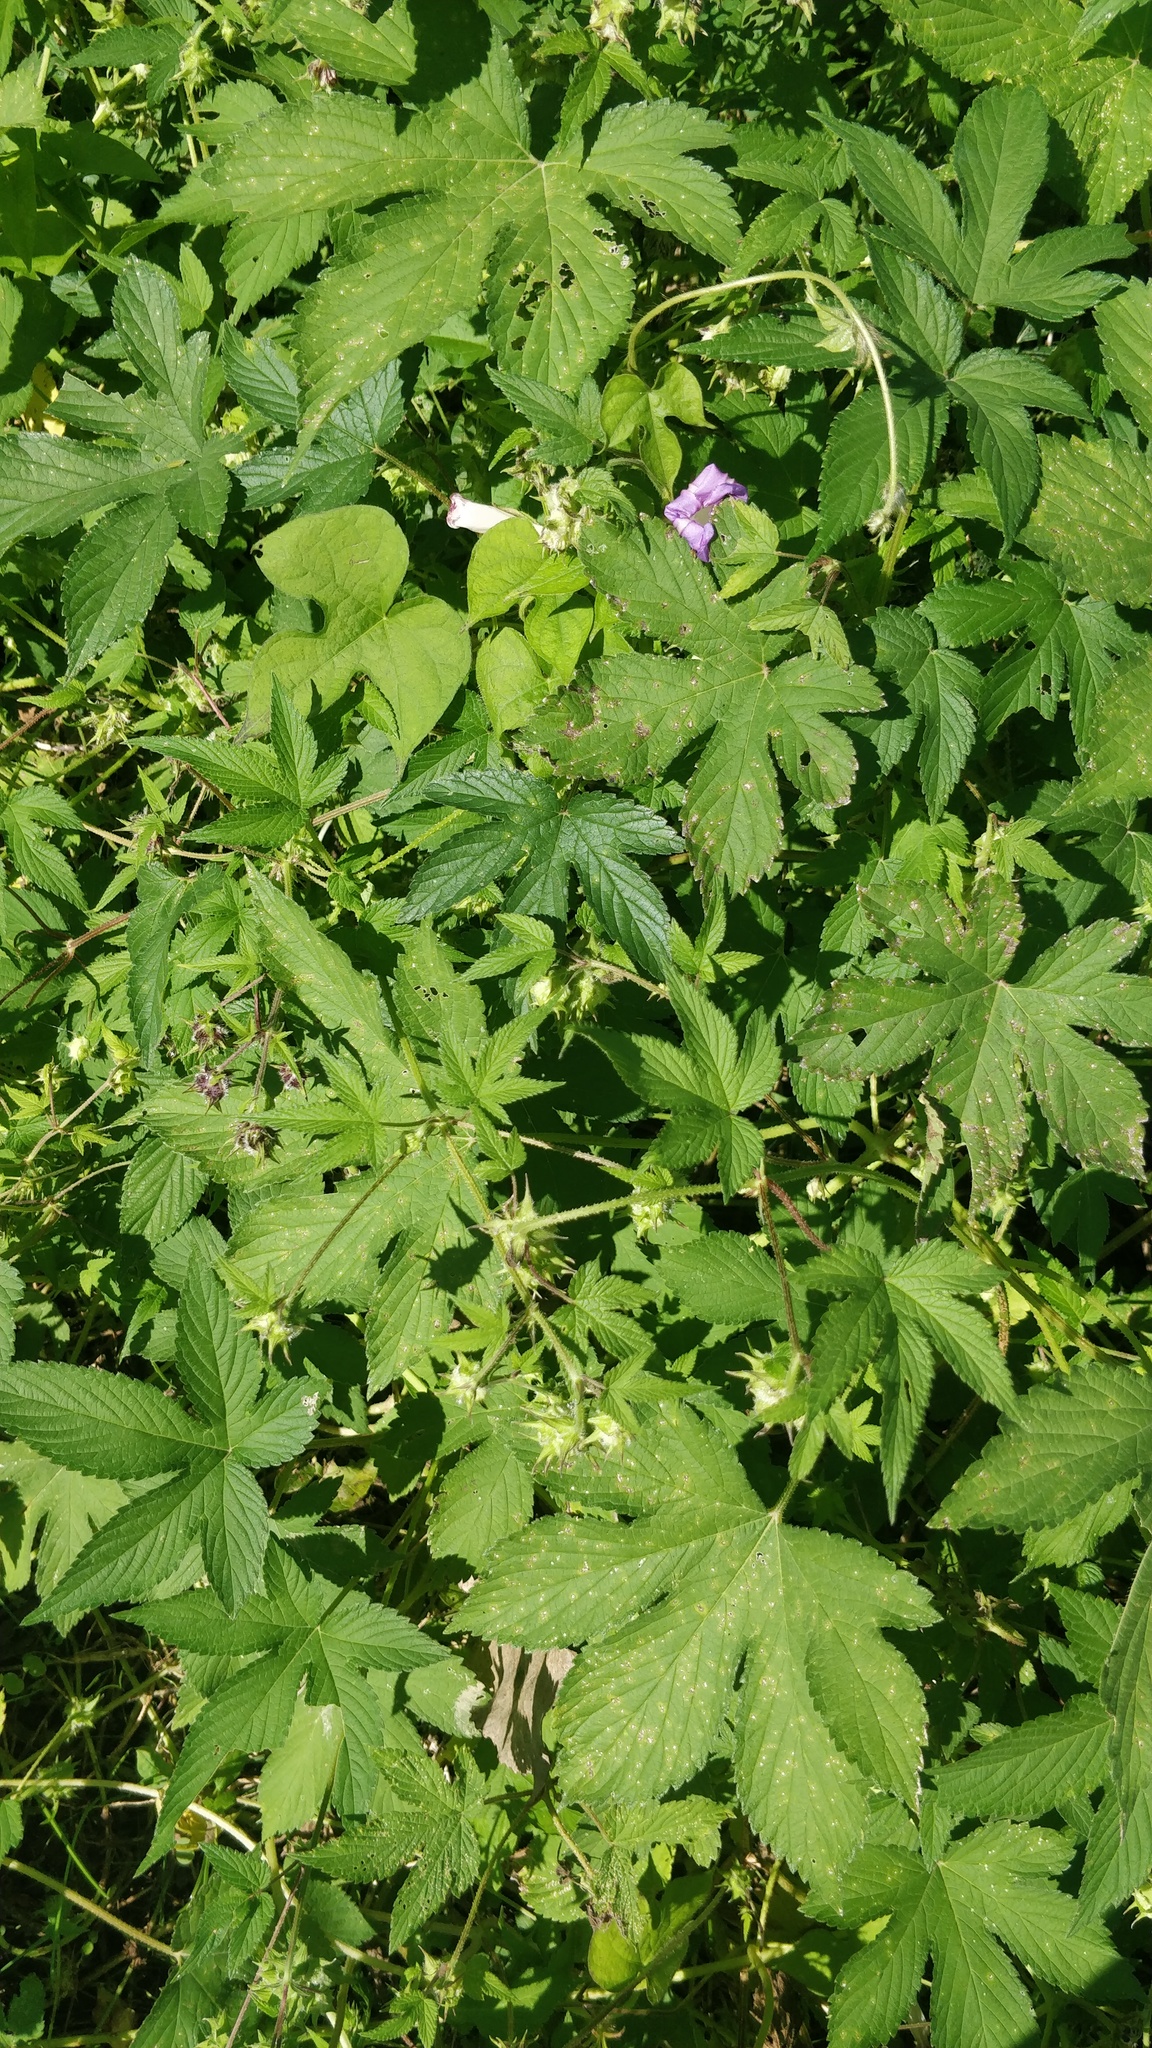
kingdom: Plantae
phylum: Tracheophyta
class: Magnoliopsida
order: Rosales
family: Cannabaceae
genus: Humulus
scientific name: Humulus scandens
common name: Japanese hop
